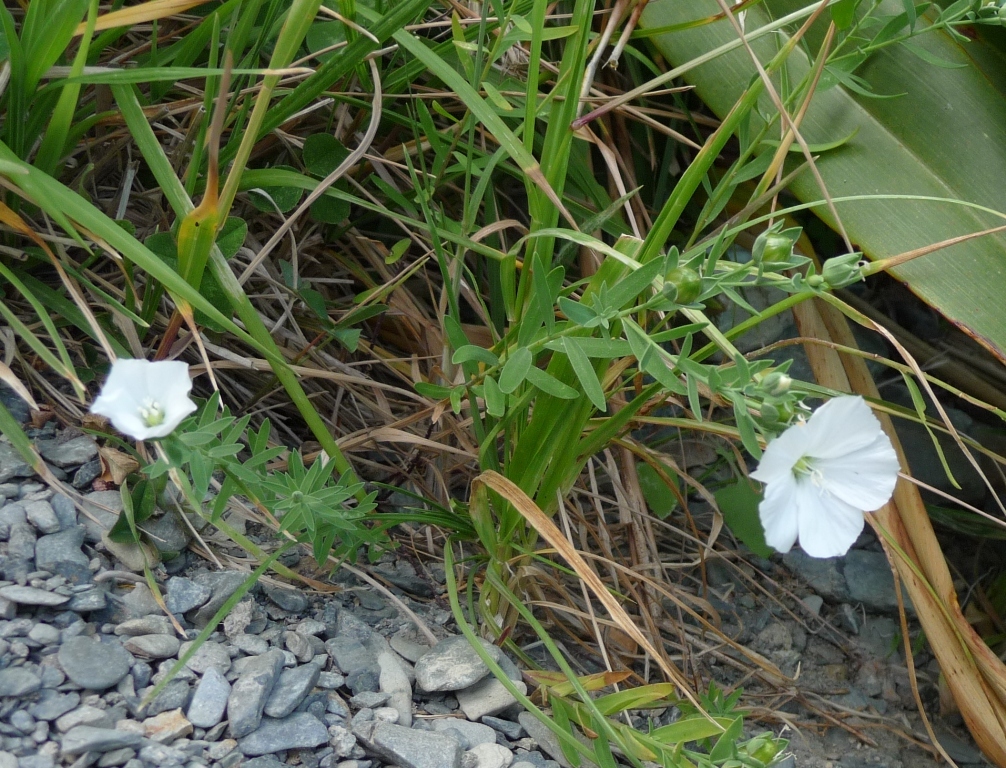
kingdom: Plantae
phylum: Tracheophyta
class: Magnoliopsida
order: Malpighiales
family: Linaceae
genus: Linum
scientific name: Linum monogynum
